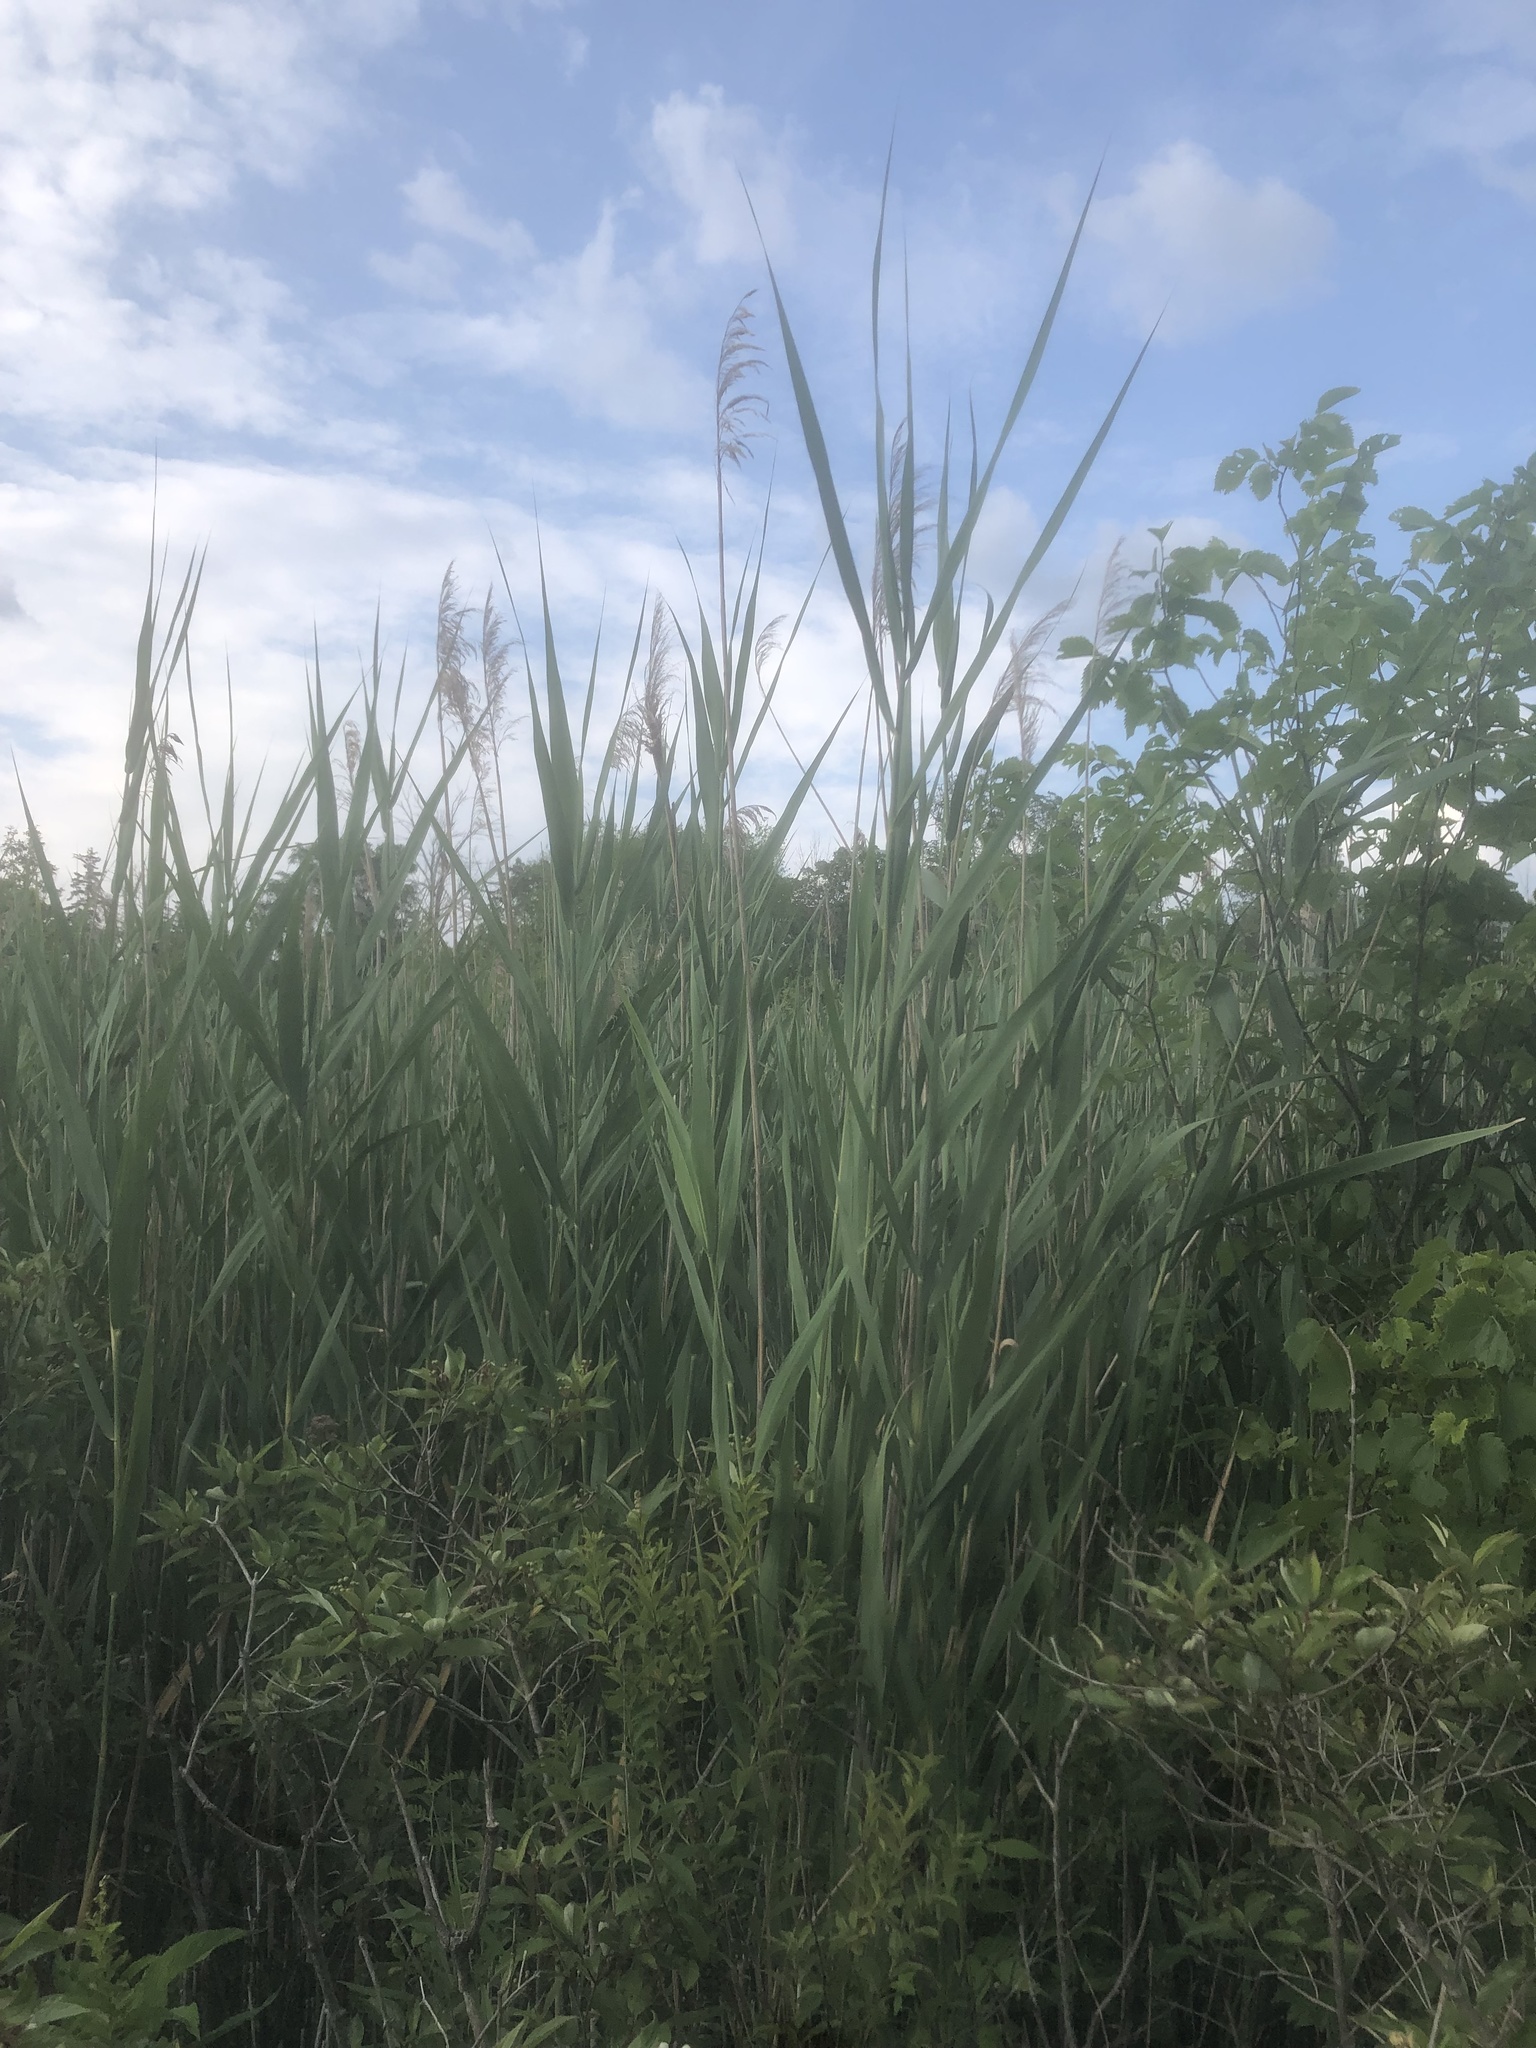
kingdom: Plantae
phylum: Tracheophyta
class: Liliopsida
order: Poales
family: Poaceae
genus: Phragmites
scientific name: Phragmites australis
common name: Common reed
